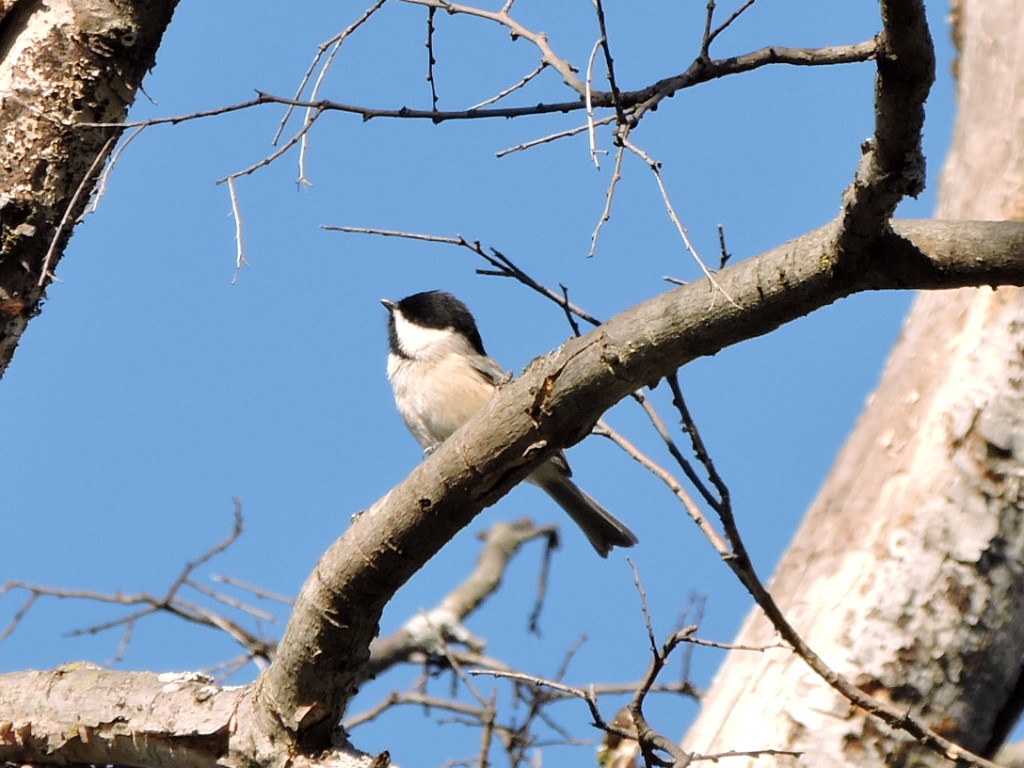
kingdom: Animalia
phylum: Chordata
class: Aves
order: Passeriformes
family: Paridae
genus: Poecile
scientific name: Poecile carolinensis
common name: Carolina chickadee
